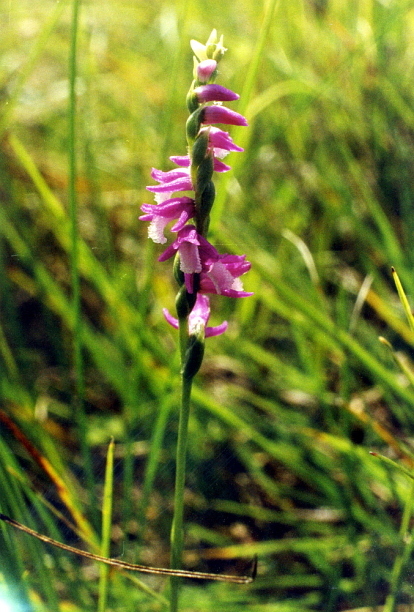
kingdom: Plantae
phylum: Tracheophyta
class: Liliopsida
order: Asparagales
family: Orchidaceae
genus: Spiranthes
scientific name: Spiranthes australis
